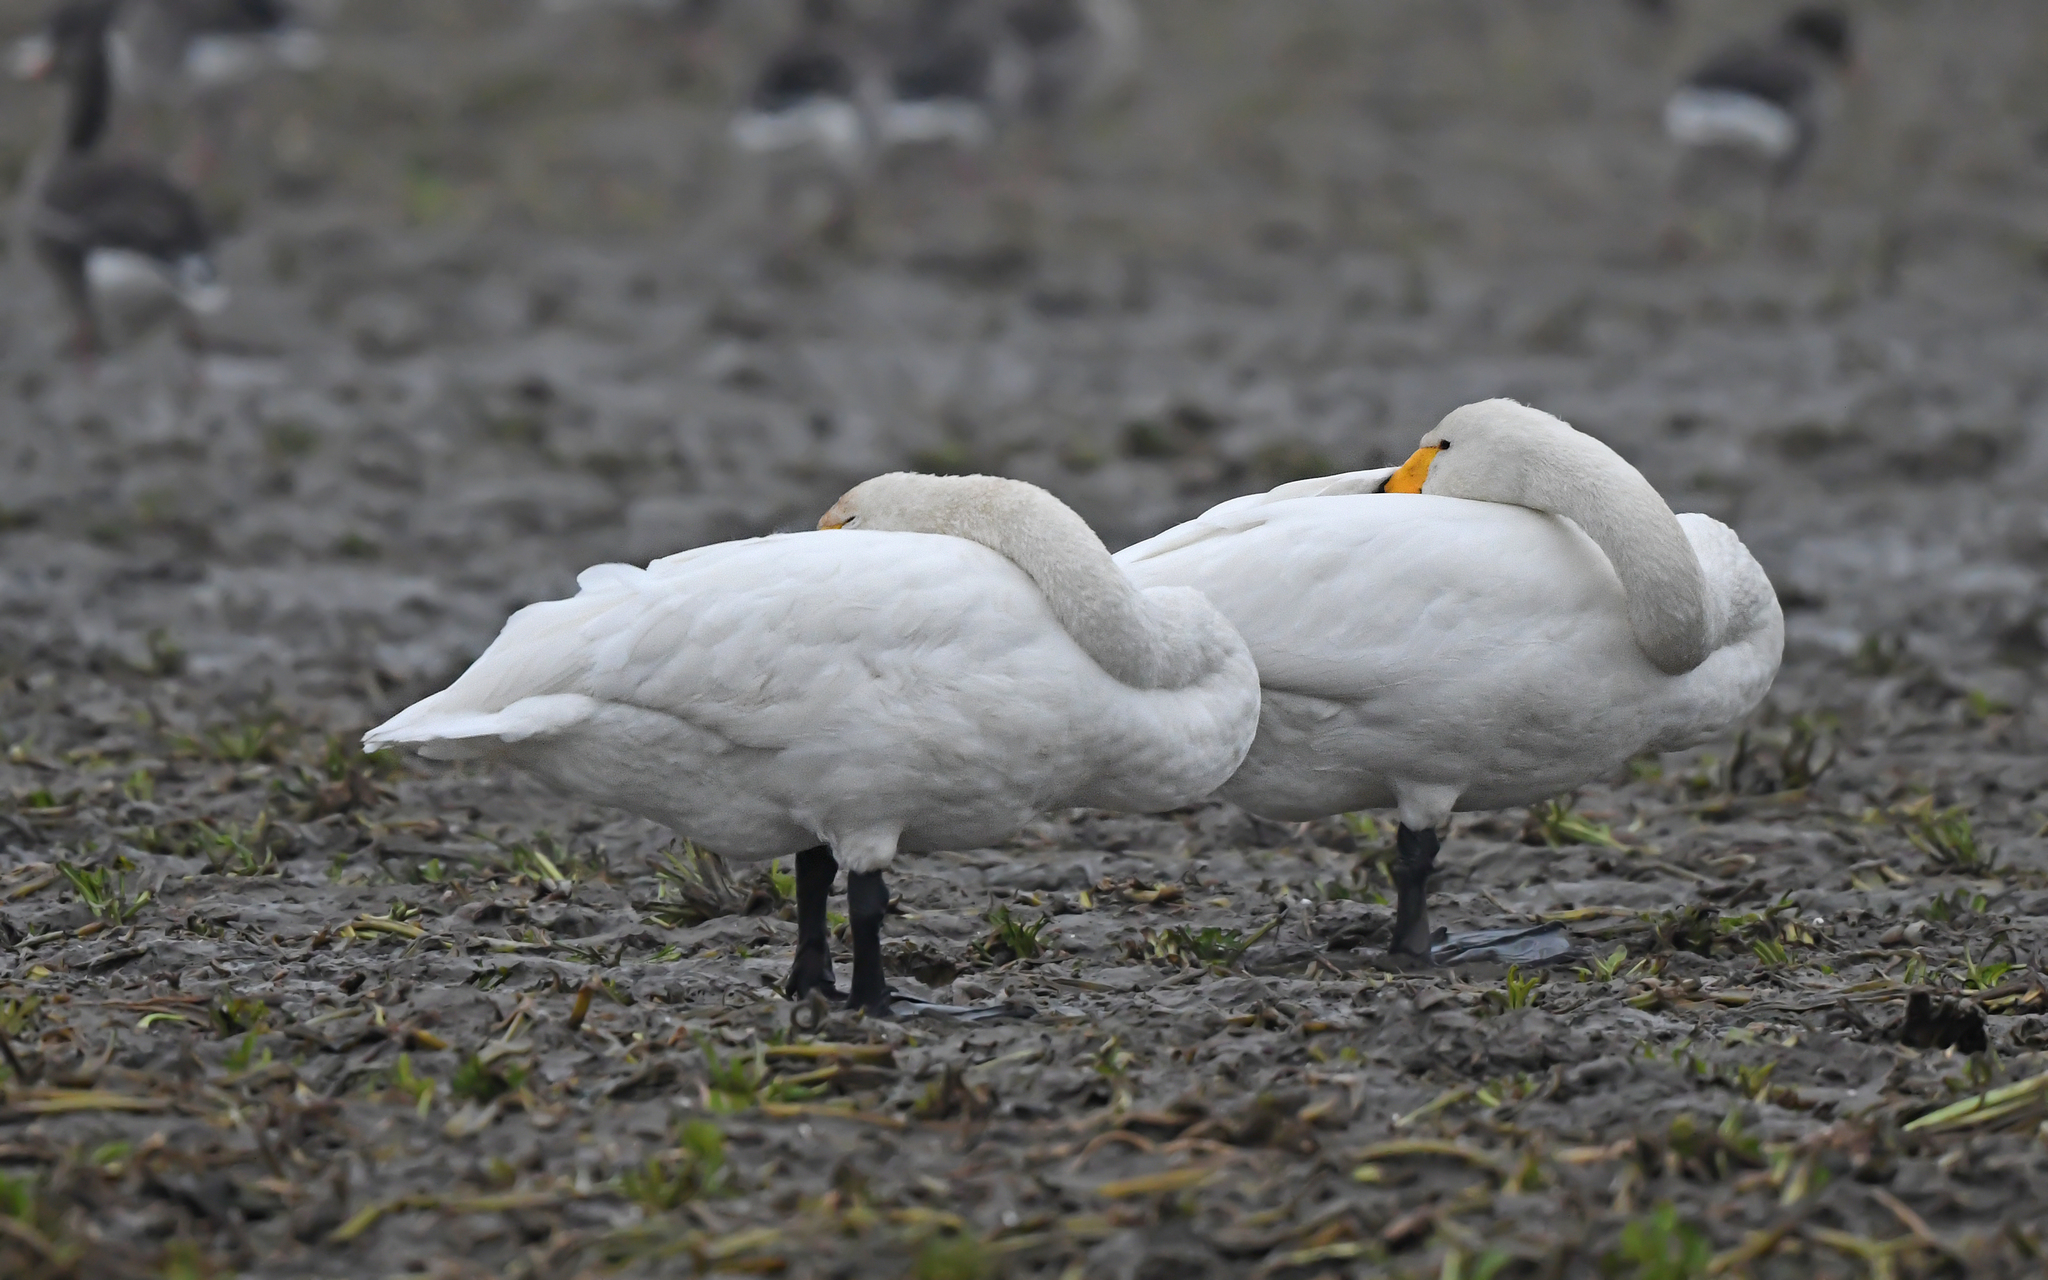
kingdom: Animalia
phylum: Chordata
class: Aves
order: Anseriformes
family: Anatidae
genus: Cygnus
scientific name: Cygnus cygnus
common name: Whooper swan
